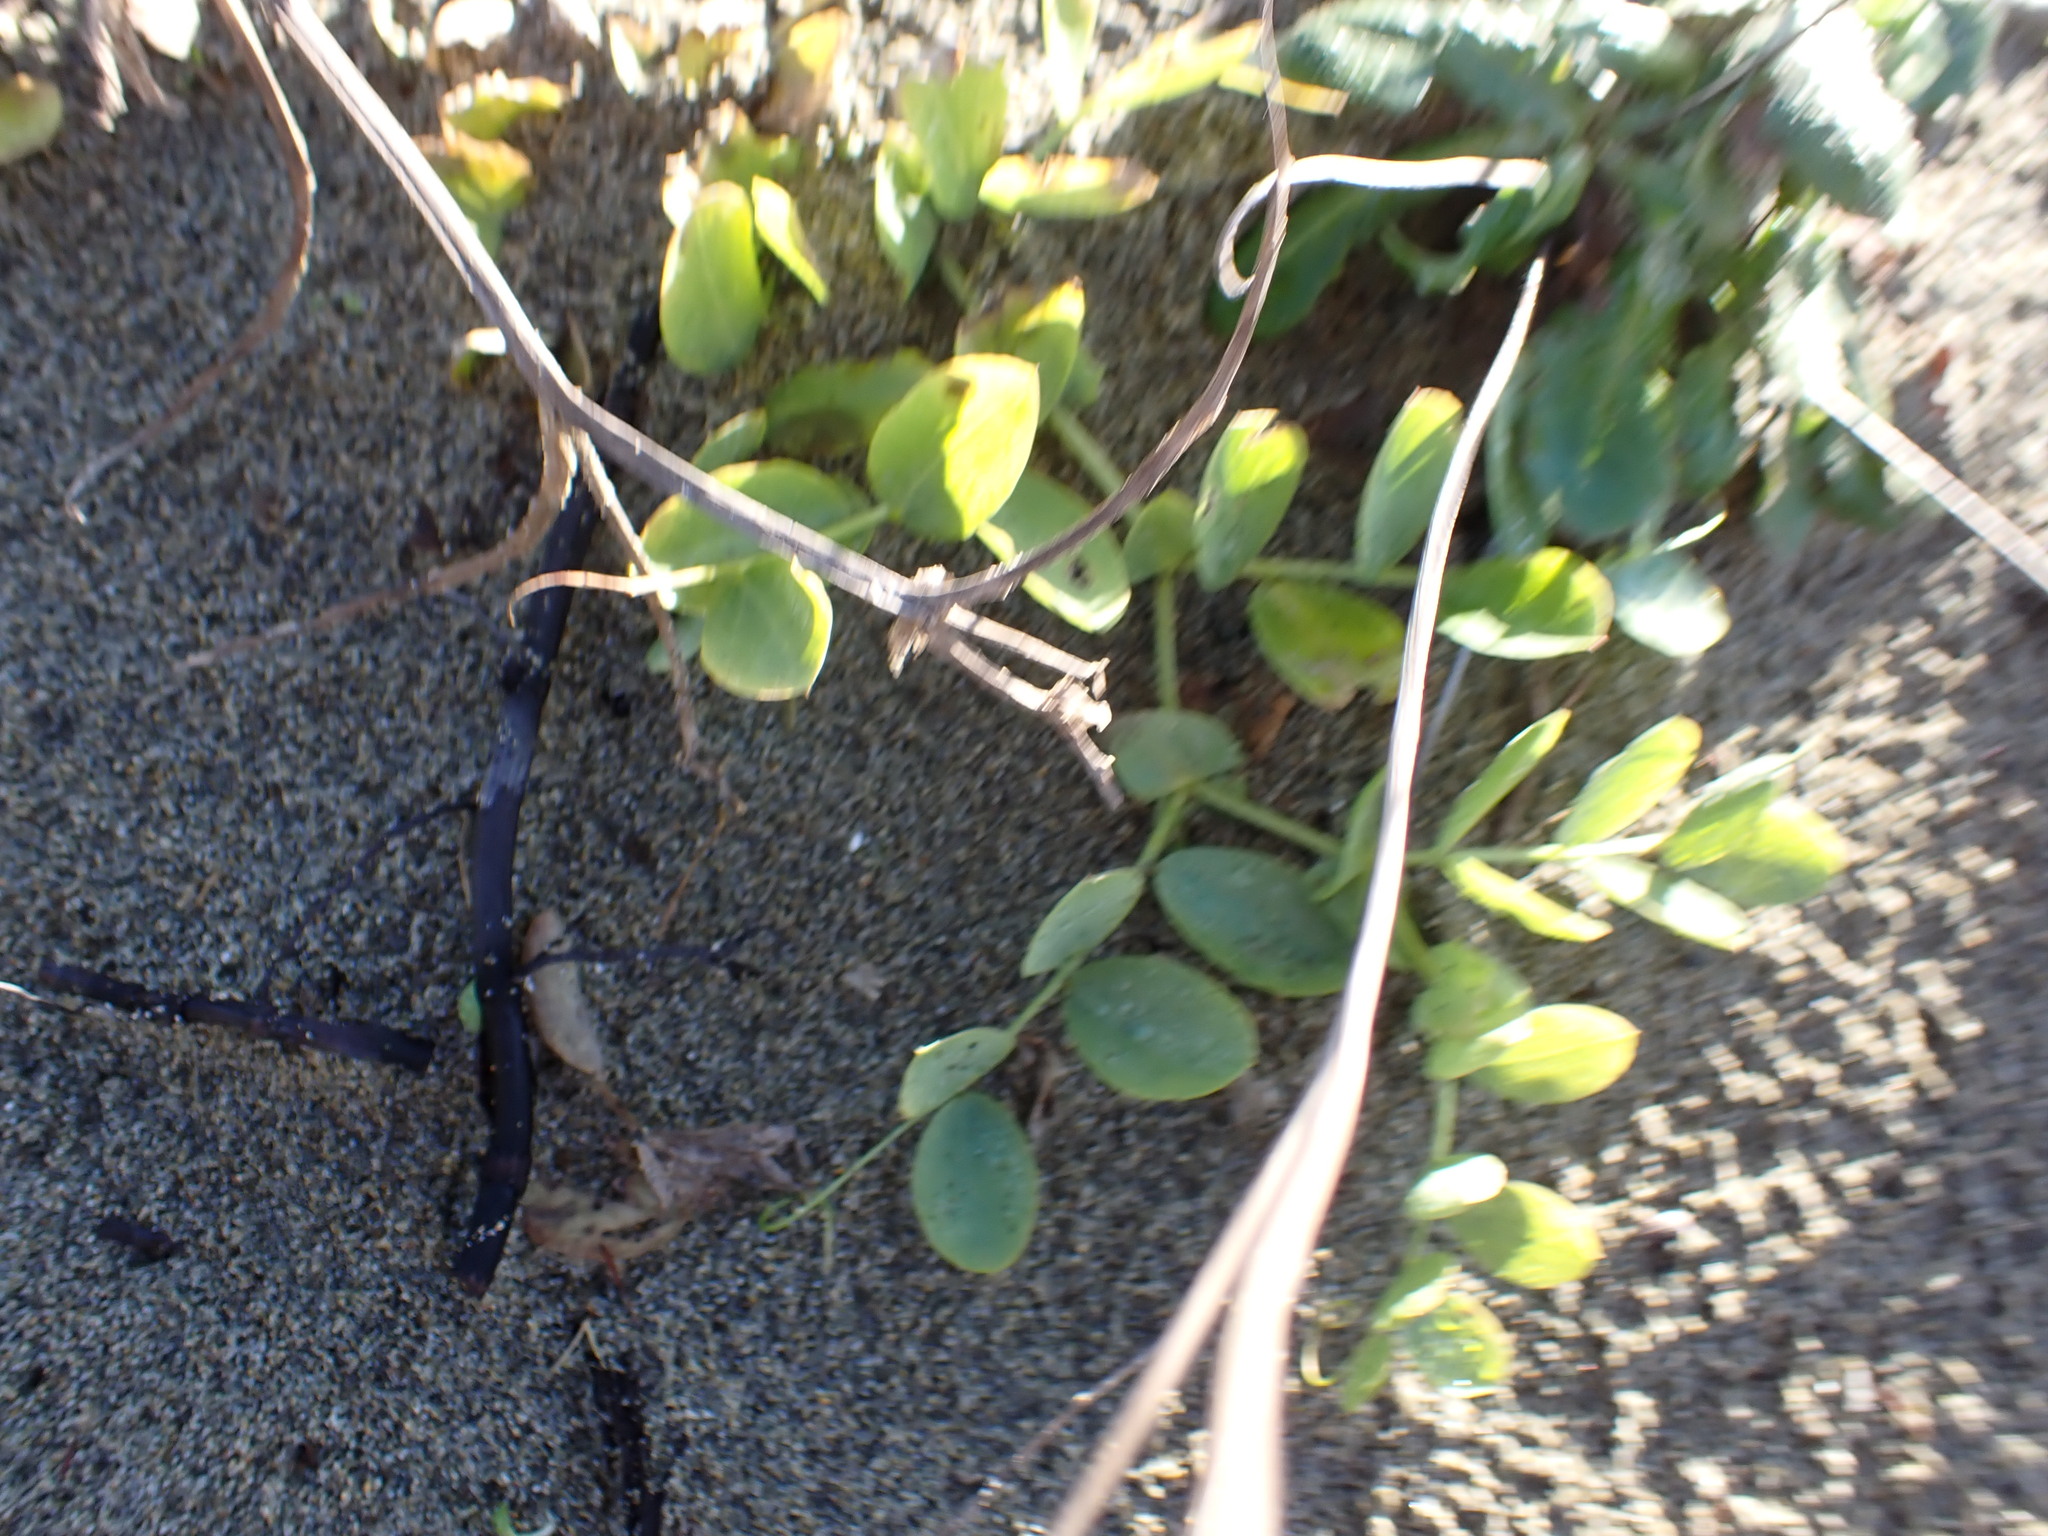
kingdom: Plantae
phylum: Tracheophyta
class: Magnoliopsida
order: Fabales
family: Fabaceae
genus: Lathyrus
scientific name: Lathyrus japonicus
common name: Sea pea
